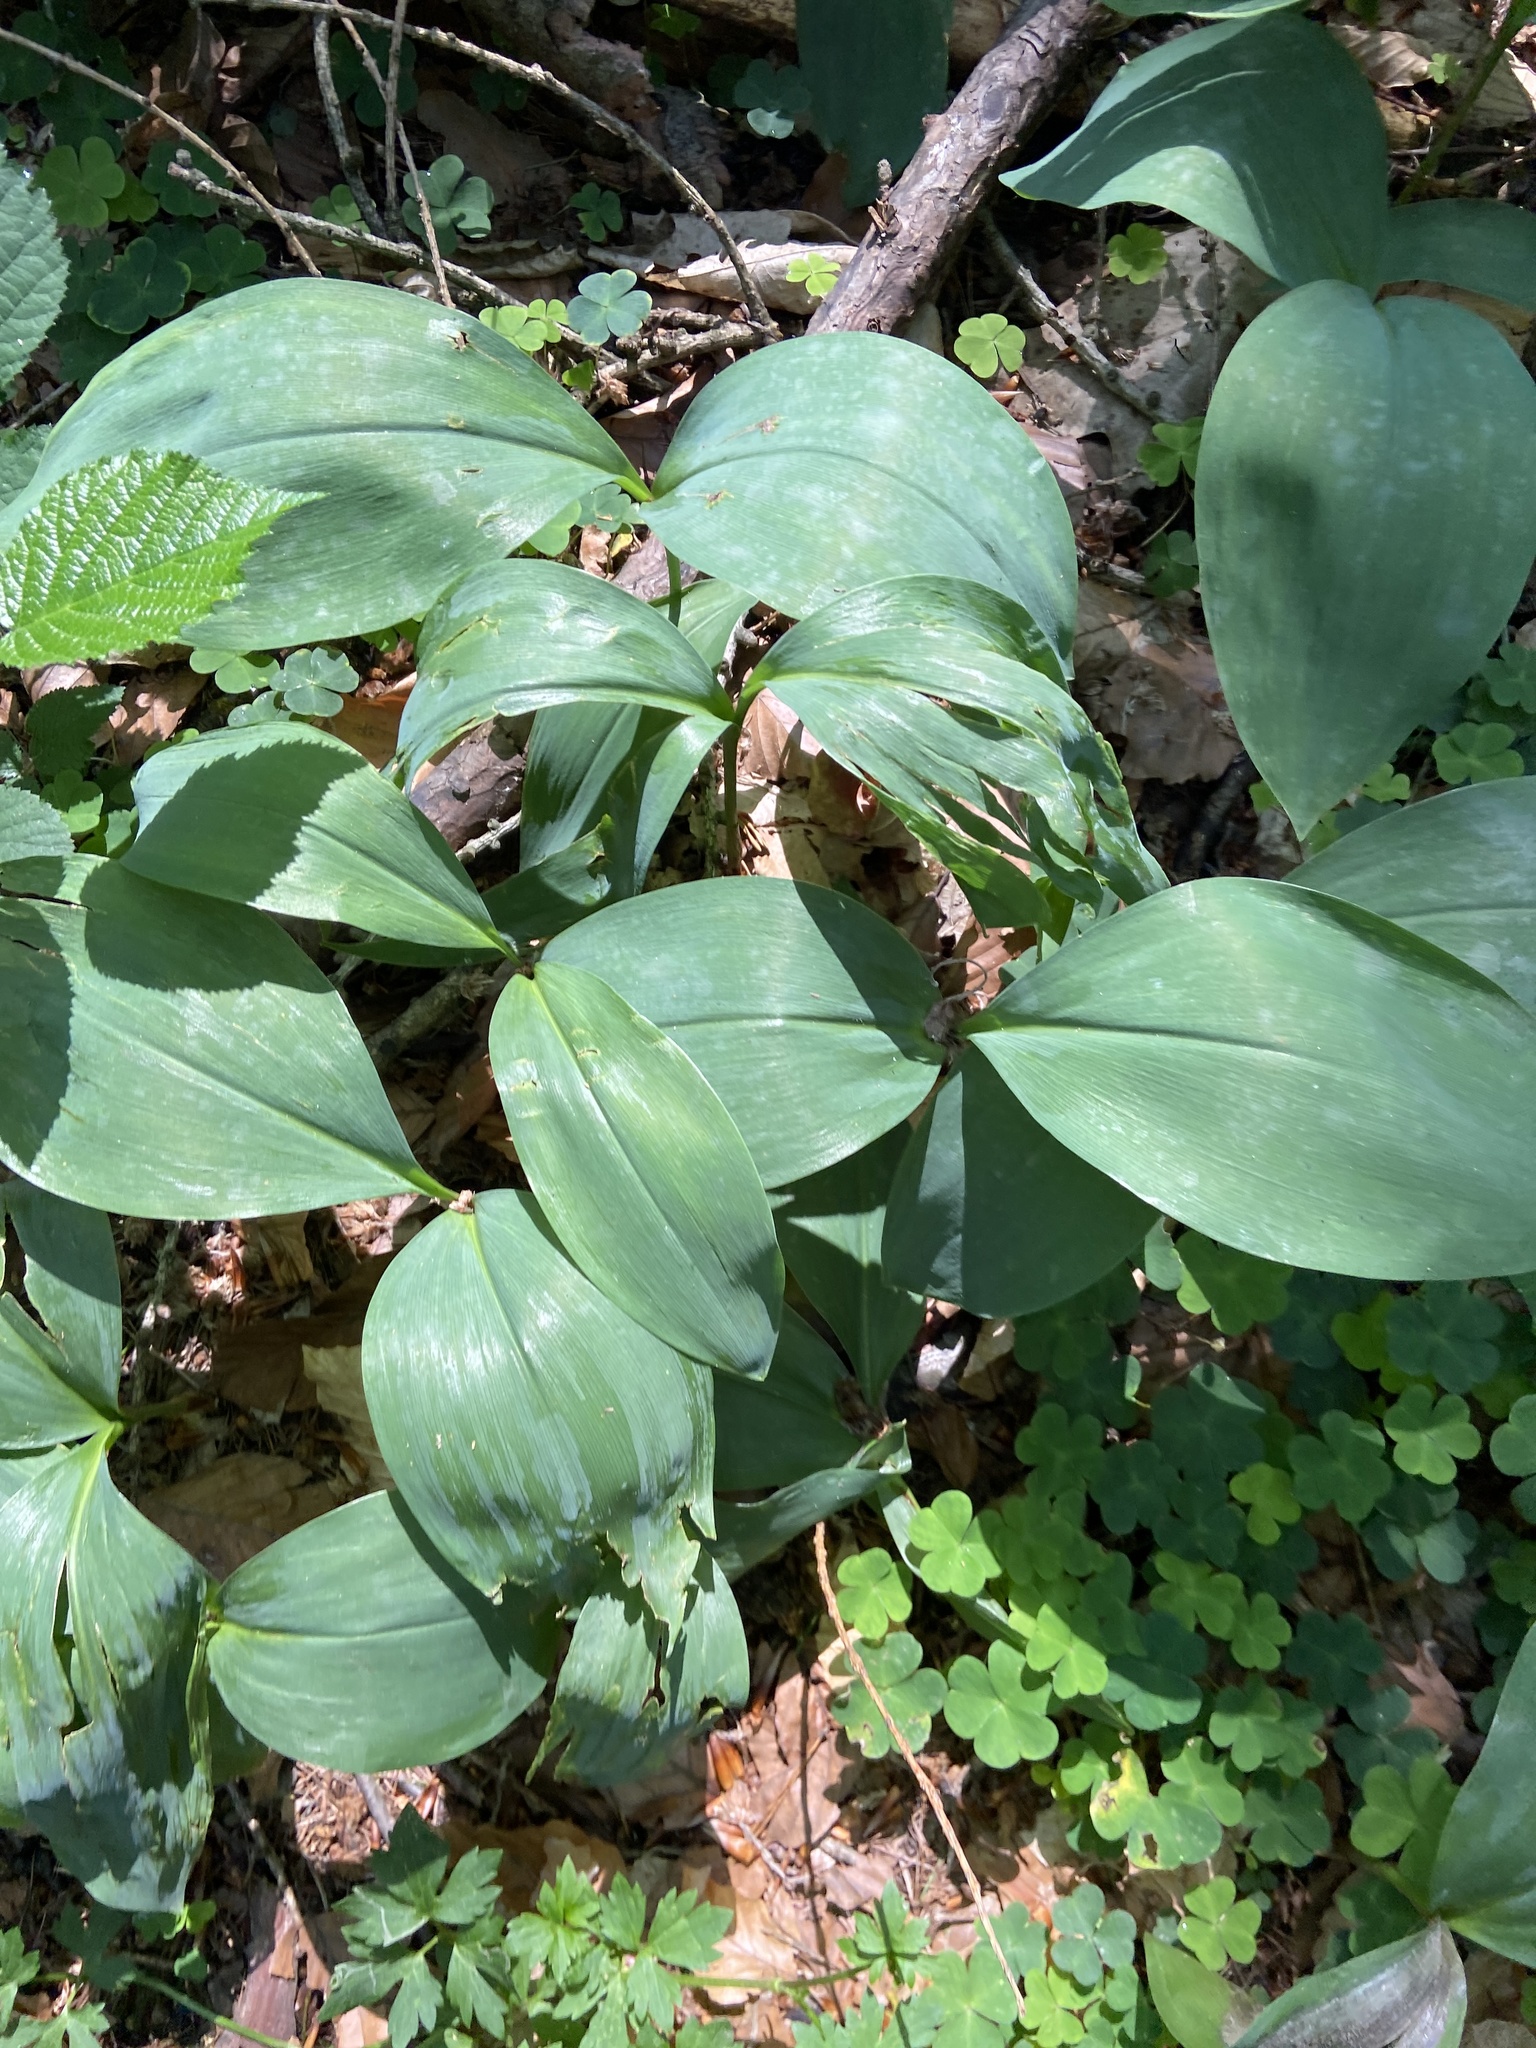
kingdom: Plantae
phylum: Tracheophyta
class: Liliopsida
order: Asparagales
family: Asparagaceae
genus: Convallaria
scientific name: Convallaria majalis
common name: Lily-of-the-valley
